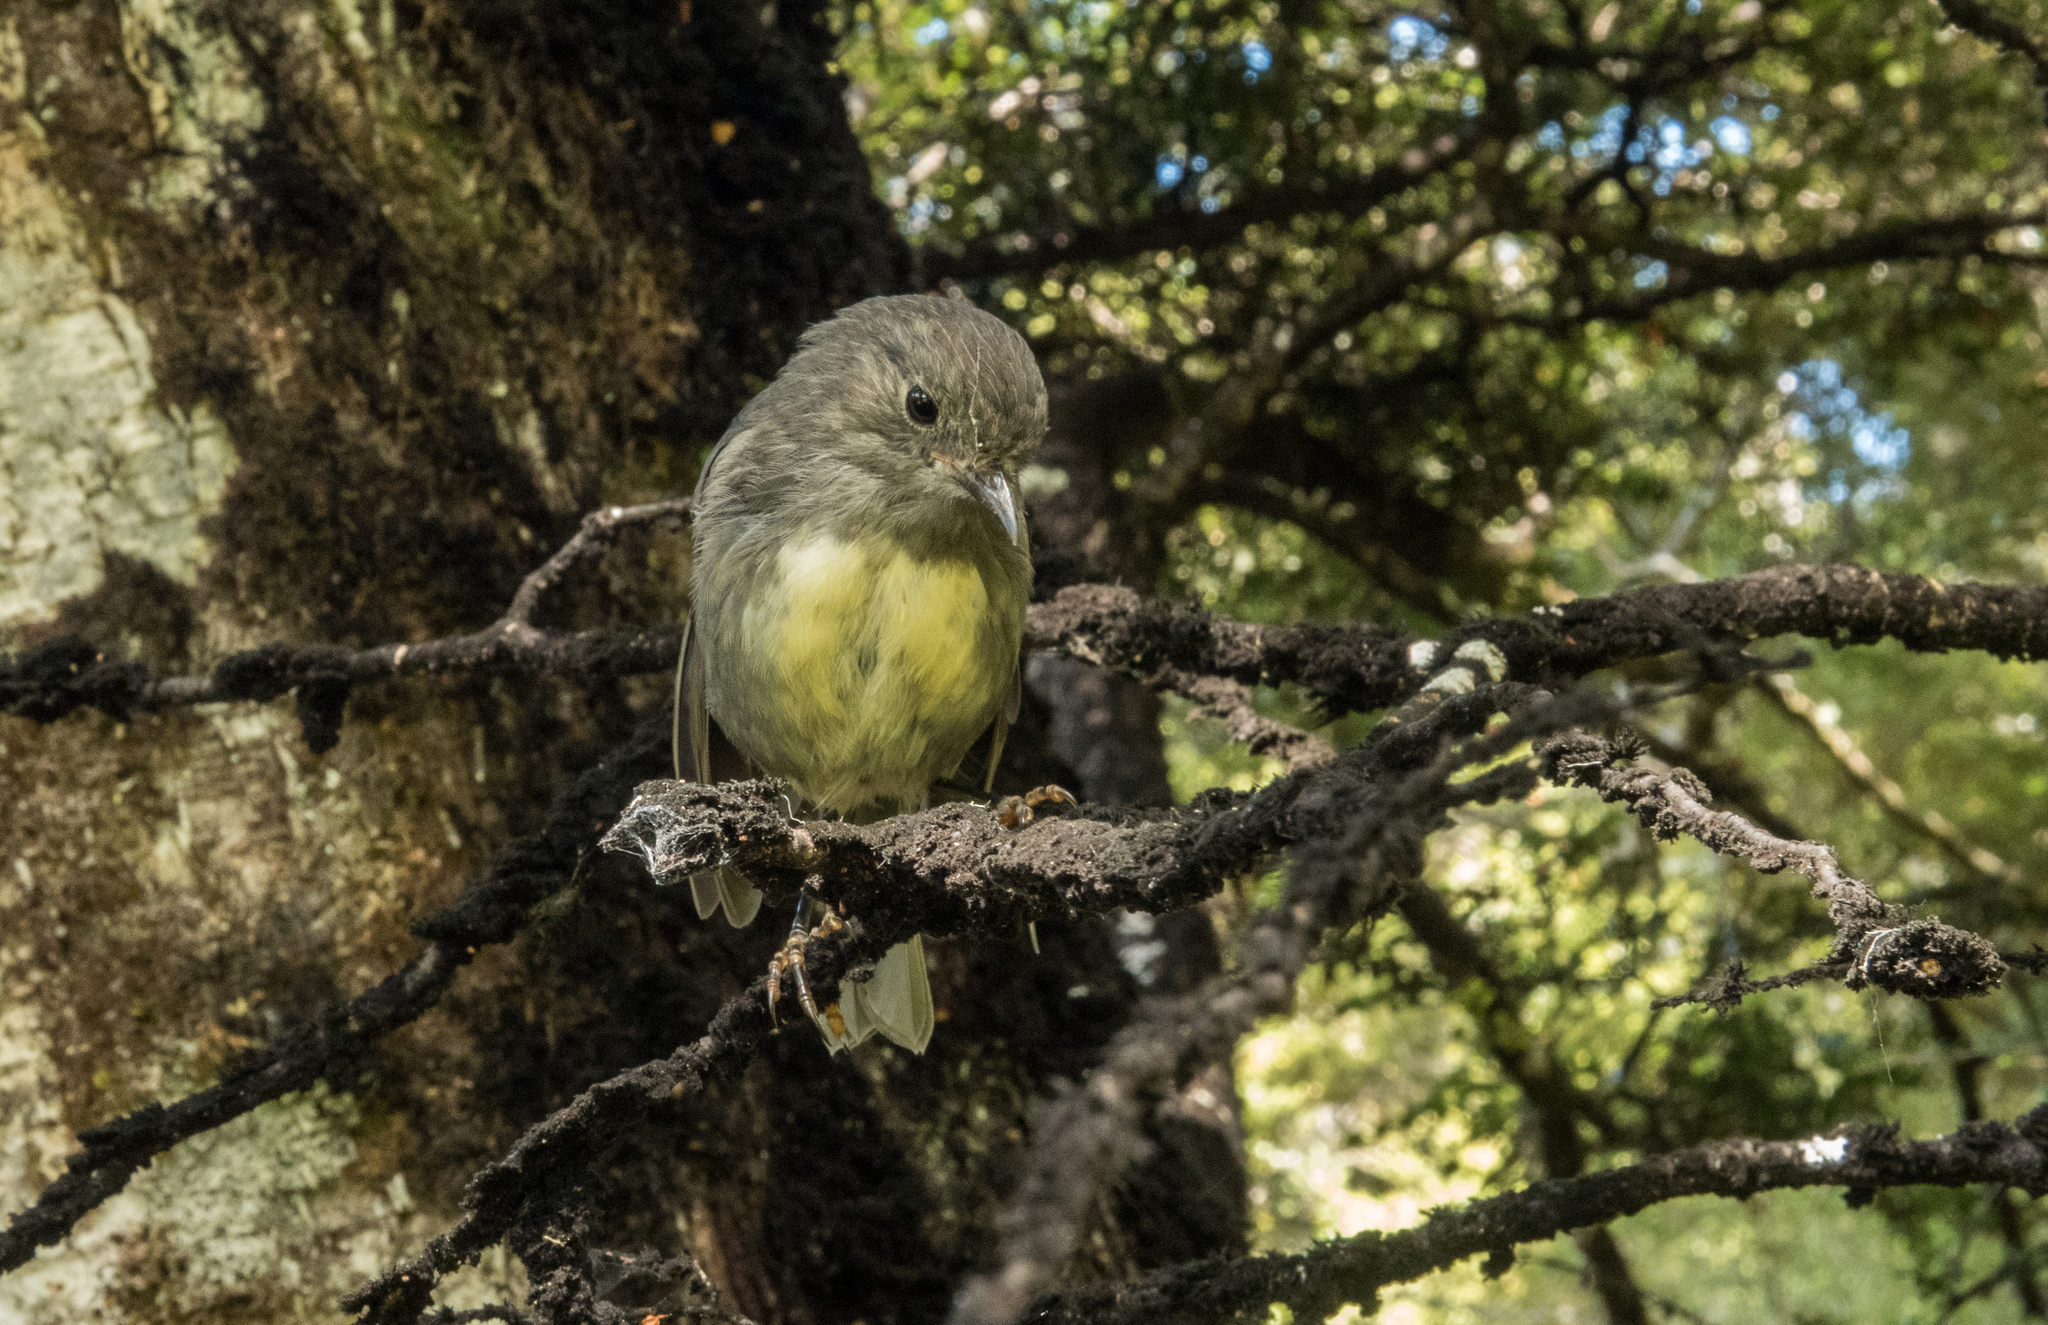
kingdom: Animalia
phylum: Chordata
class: Aves
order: Passeriformes
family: Petroicidae
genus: Petroica
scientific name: Petroica australis
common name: New zealand robin
